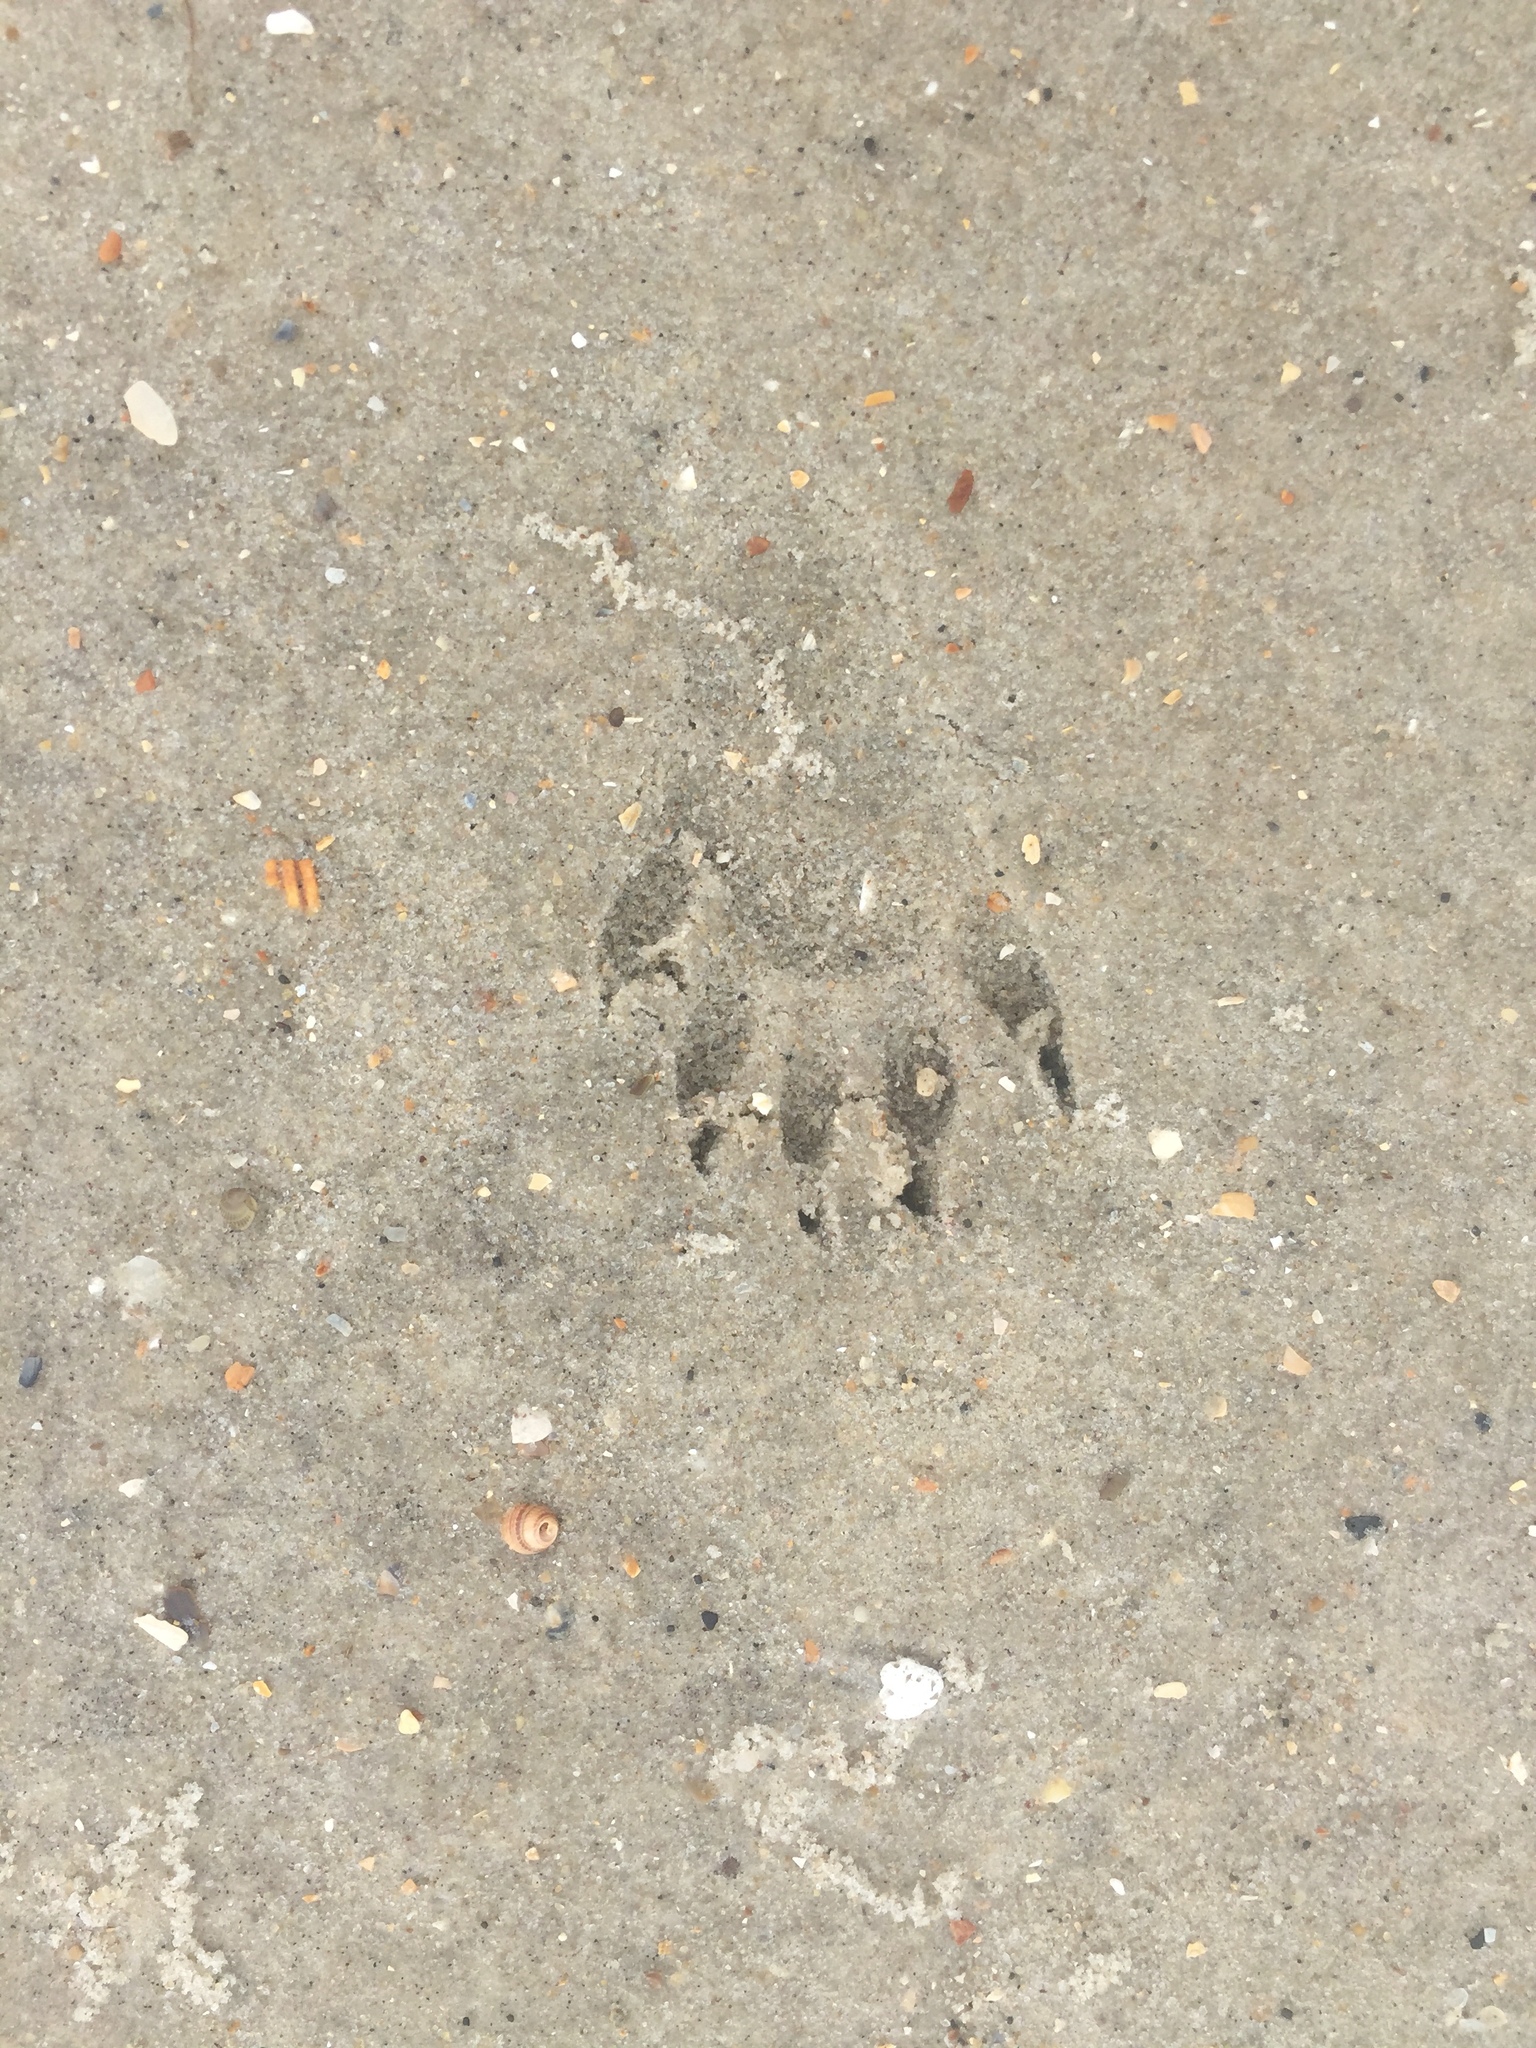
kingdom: Animalia
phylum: Chordata
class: Mammalia
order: Carnivora
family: Procyonidae
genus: Procyon
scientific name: Procyon lotor
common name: Raccoon
